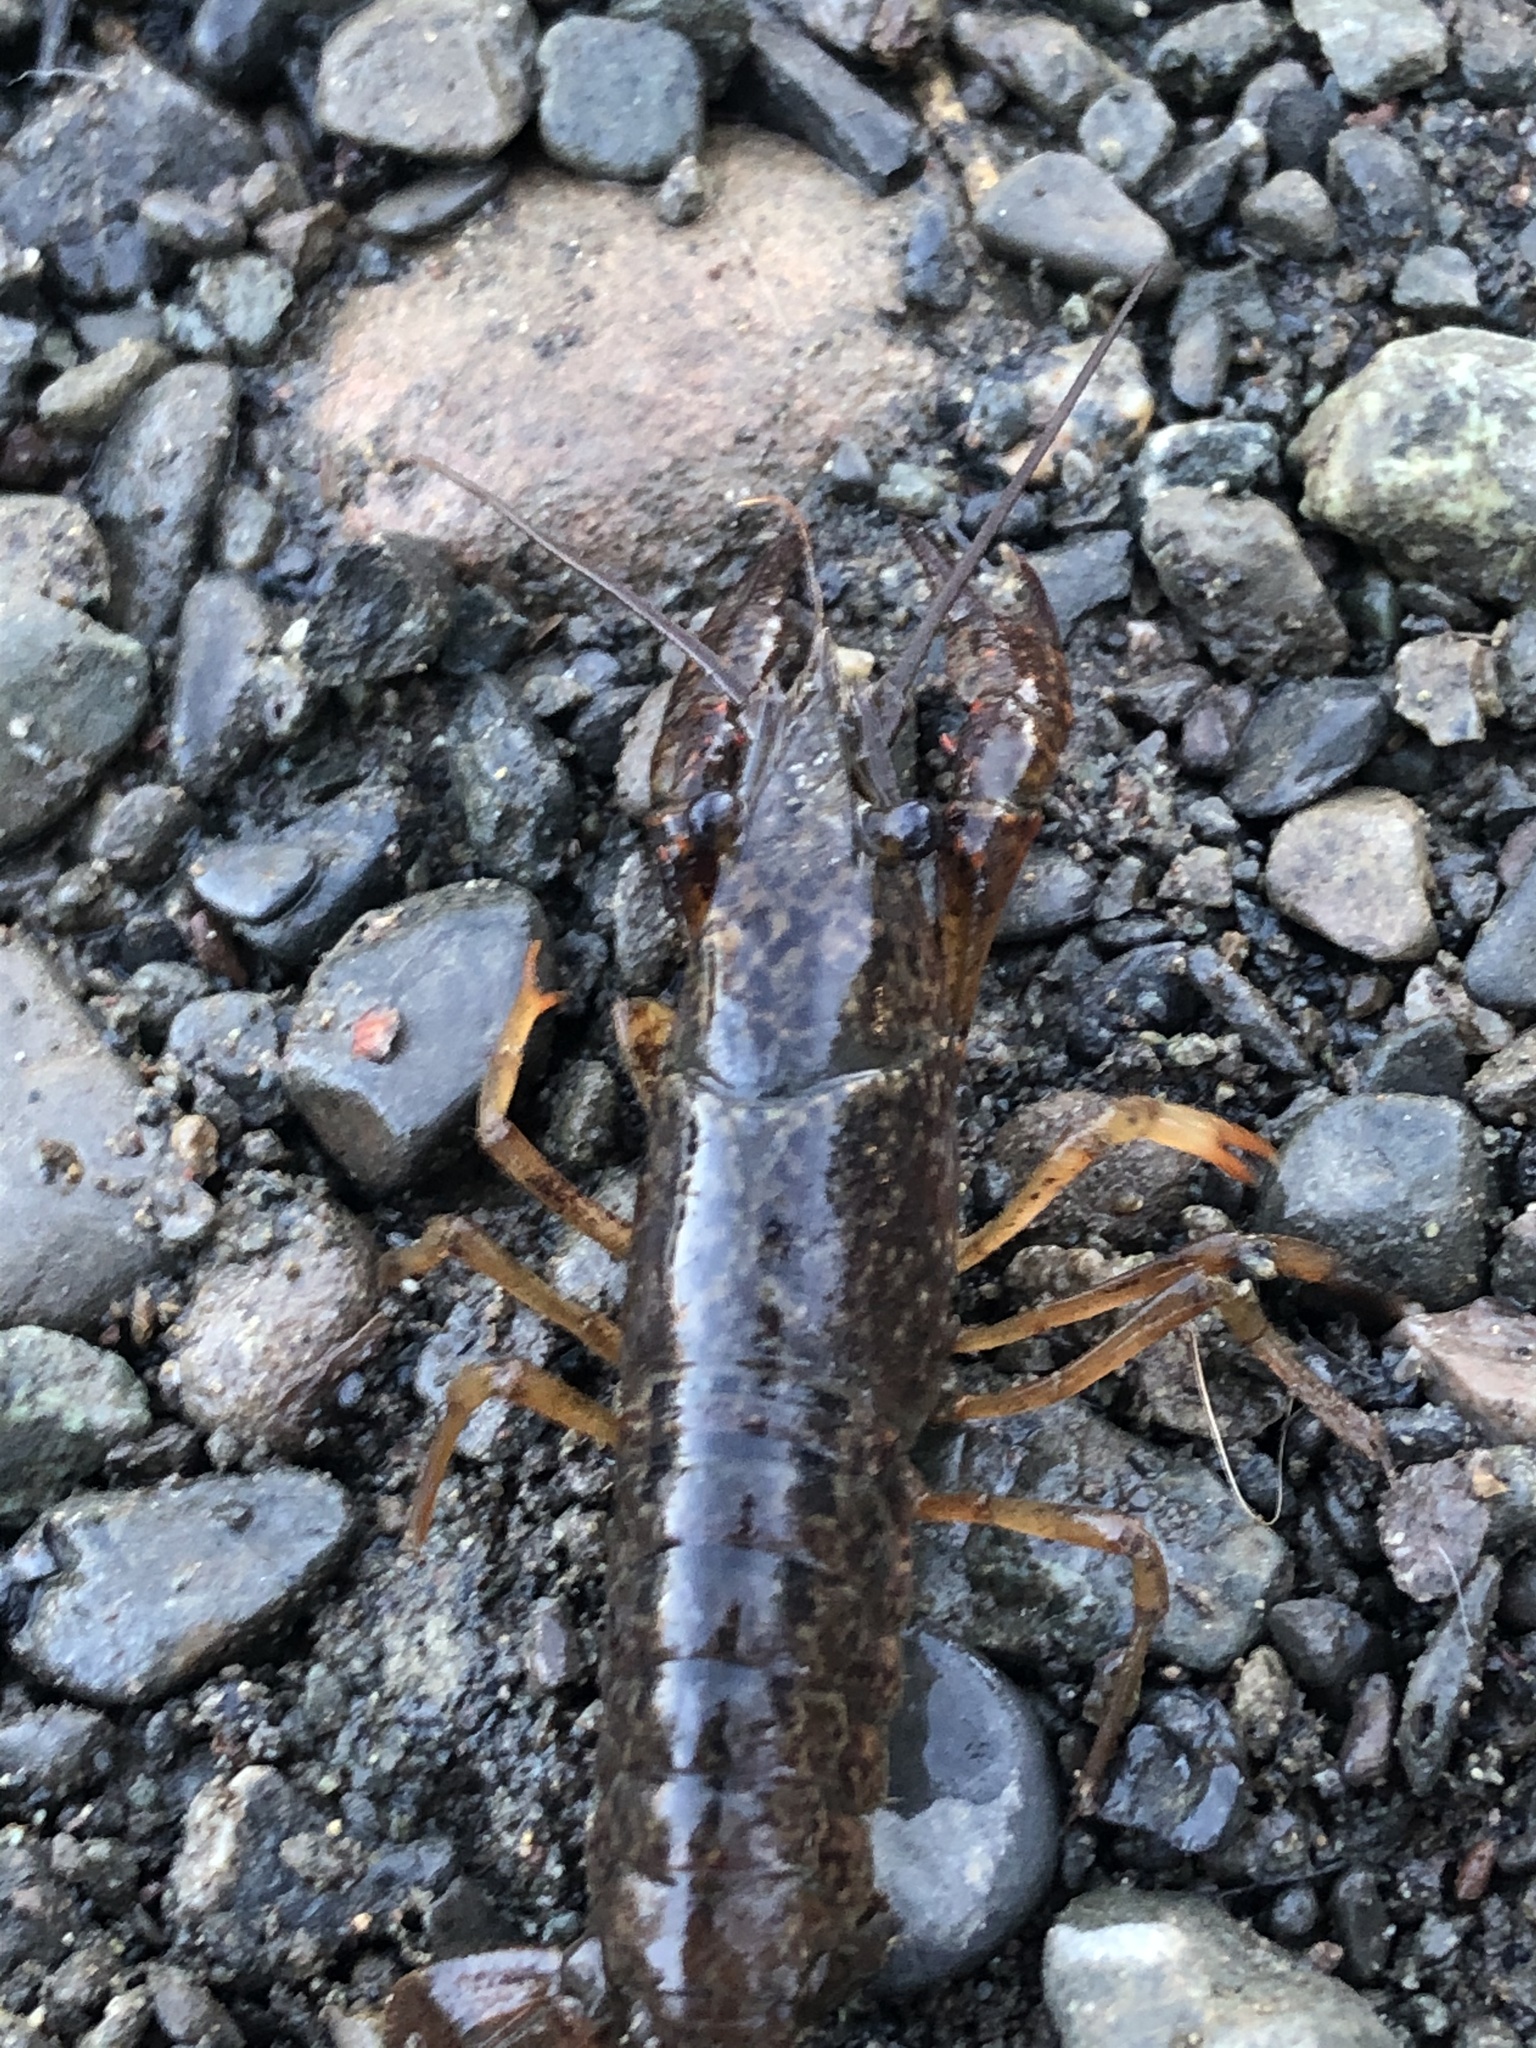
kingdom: Animalia
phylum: Arthropoda
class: Malacostraca
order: Decapoda
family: Cambaridae
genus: Procambarus
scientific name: Procambarus clarkii
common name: Red swamp crayfish
